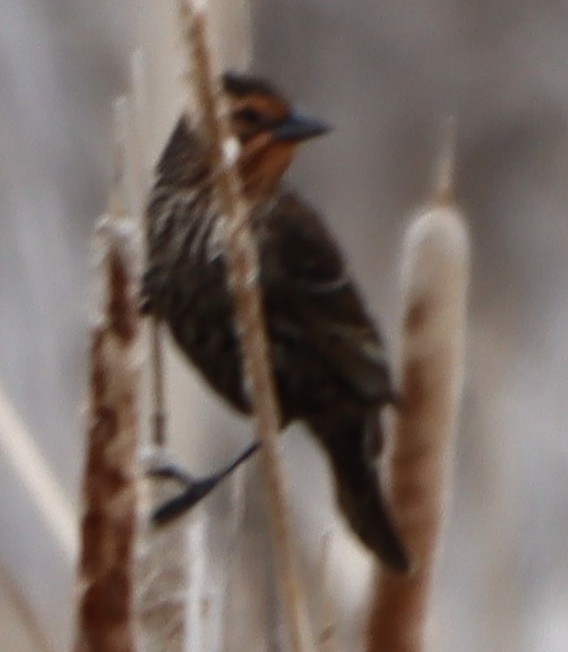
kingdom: Animalia
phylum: Chordata
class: Aves
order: Passeriformes
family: Icteridae
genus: Agelaius
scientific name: Agelaius phoeniceus
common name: Red-winged blackbird
